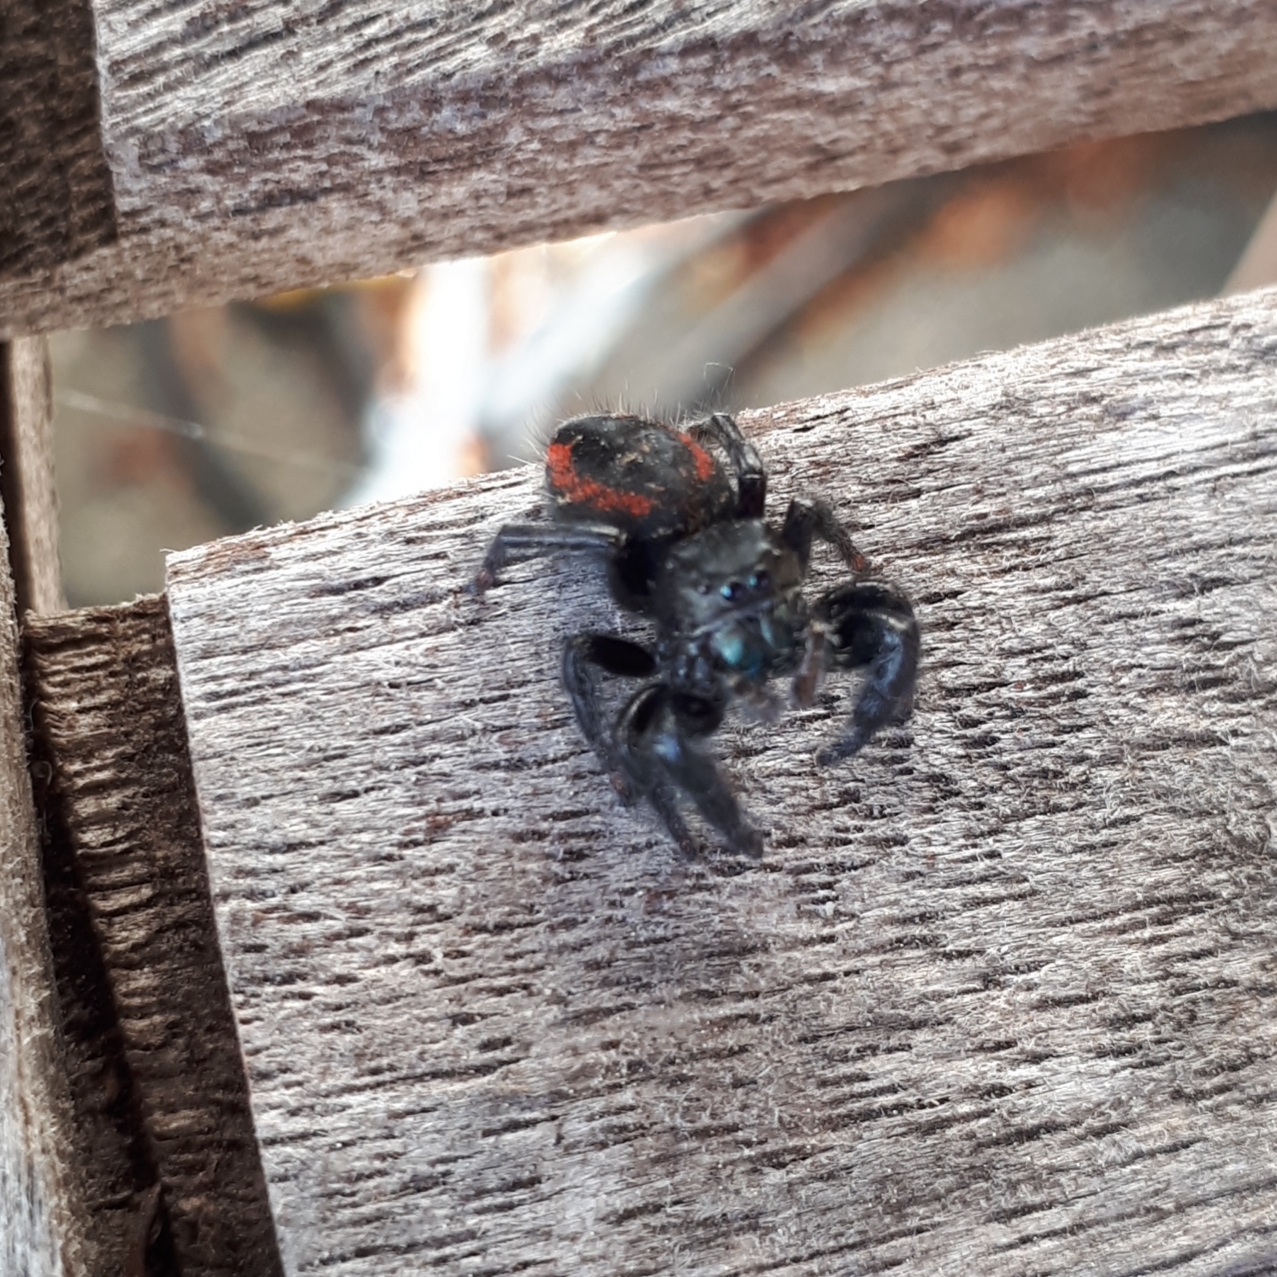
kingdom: Animalia
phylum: Arthropoda
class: Arachnida
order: Araneae
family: Salticidae
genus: Phidippus
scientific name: Phidippus johnsoni
